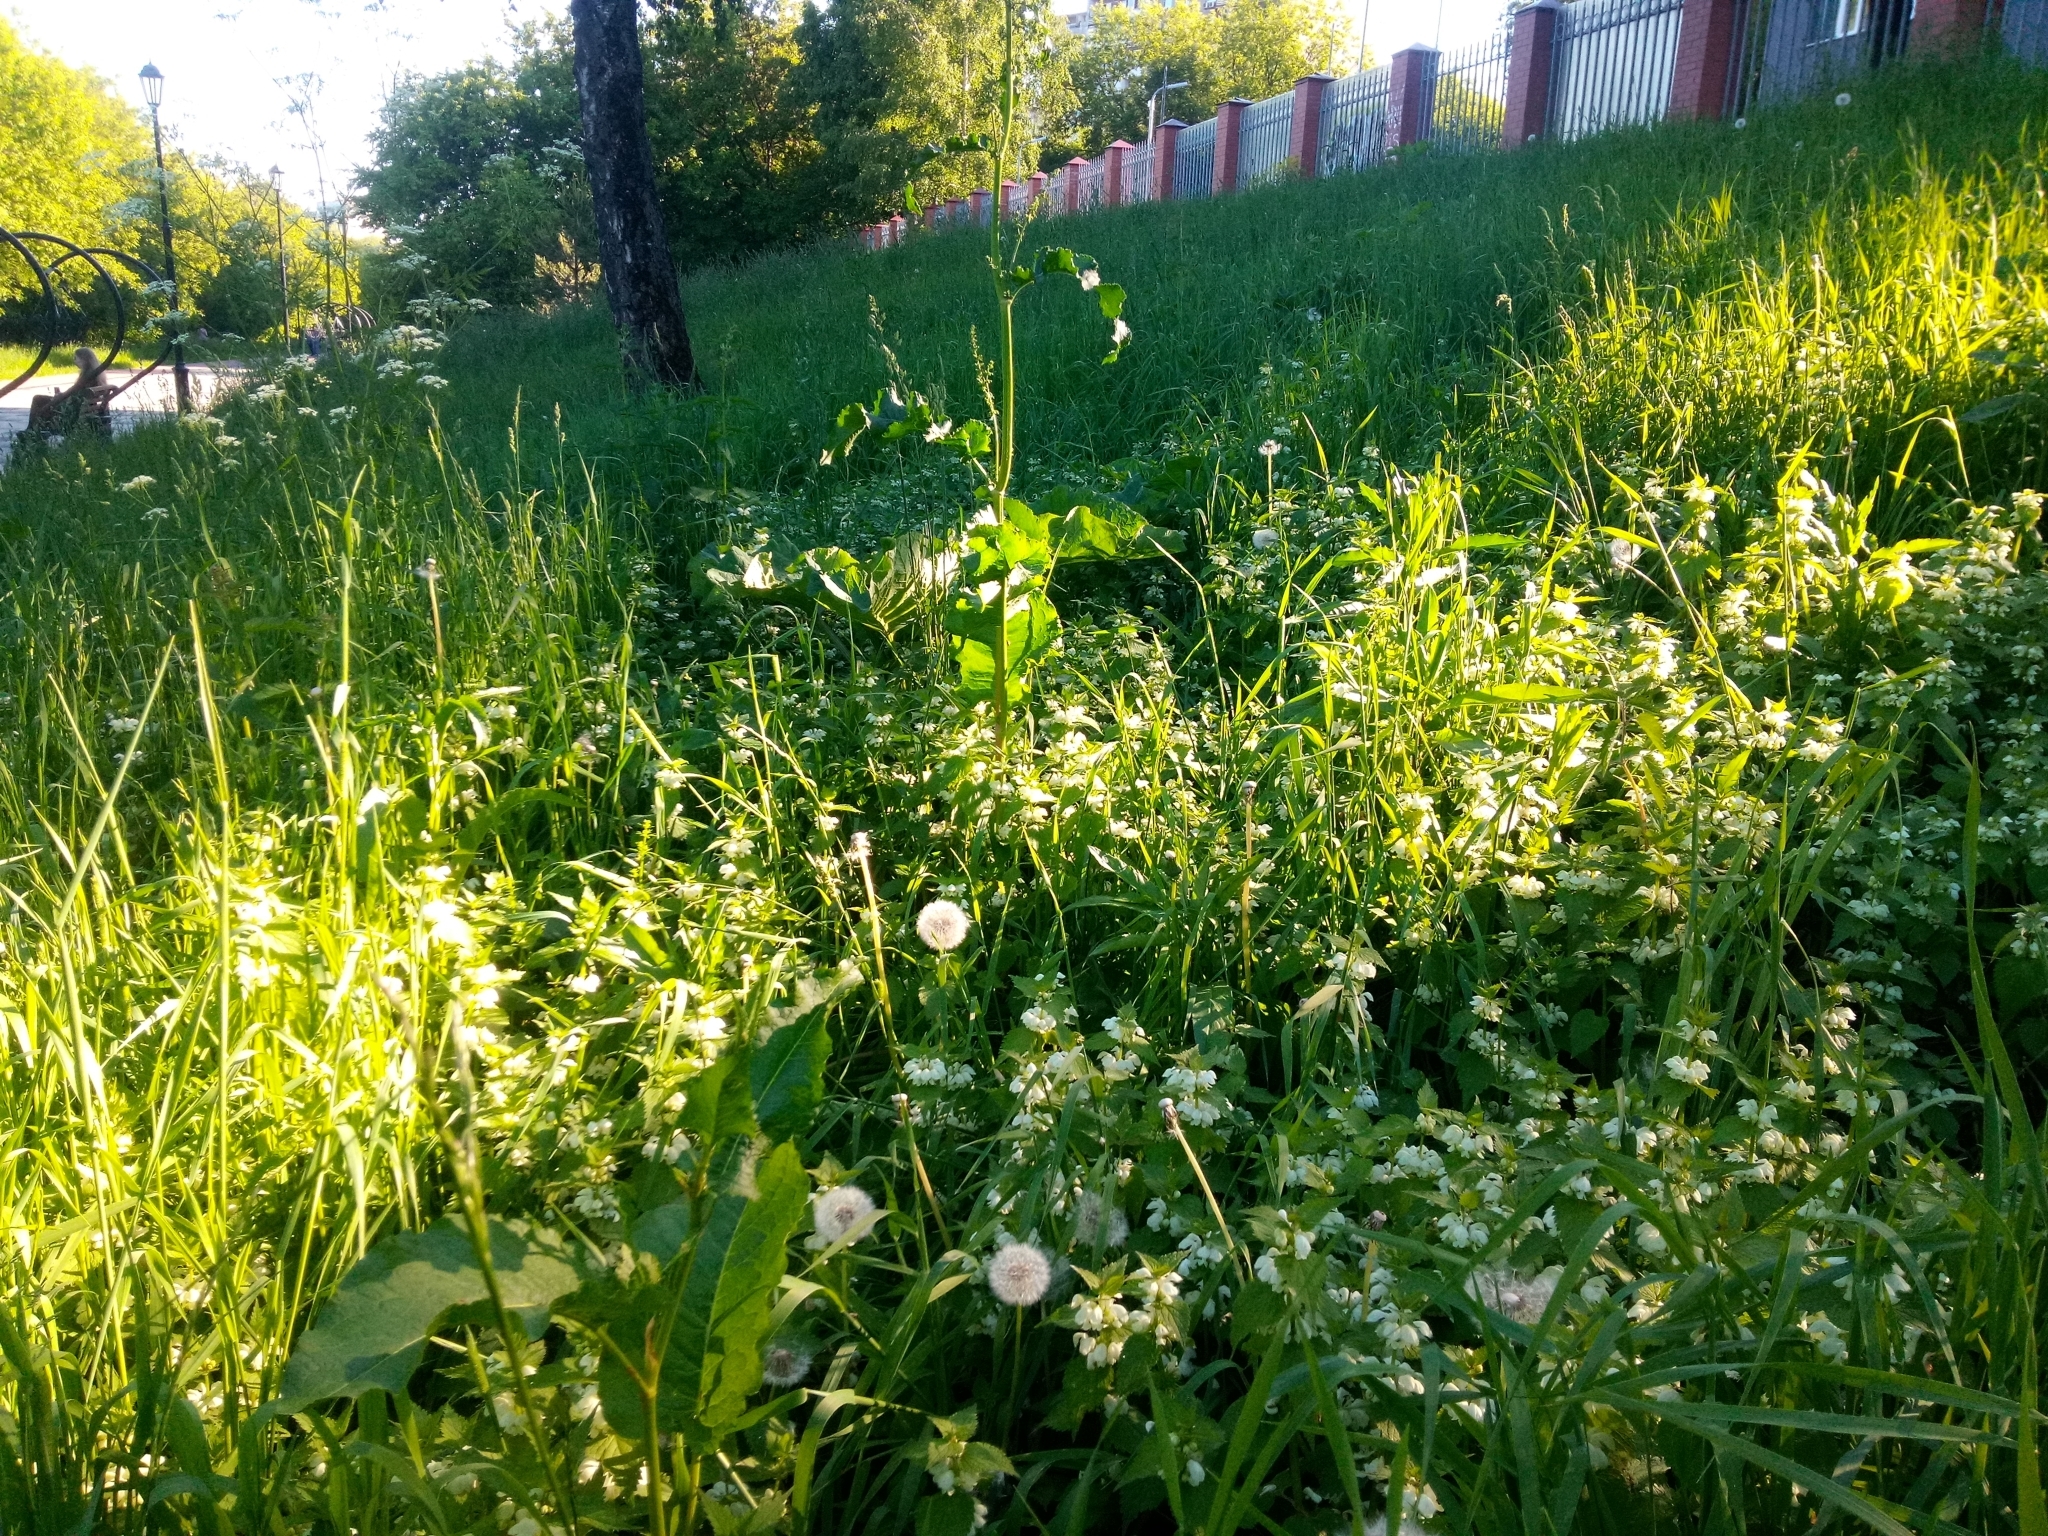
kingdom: Plantae
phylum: Tracheophyta
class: Magnoliopsida
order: Lamiales
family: Lamiaceae
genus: Lamium
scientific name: Lamium album
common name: White dead-nettle
